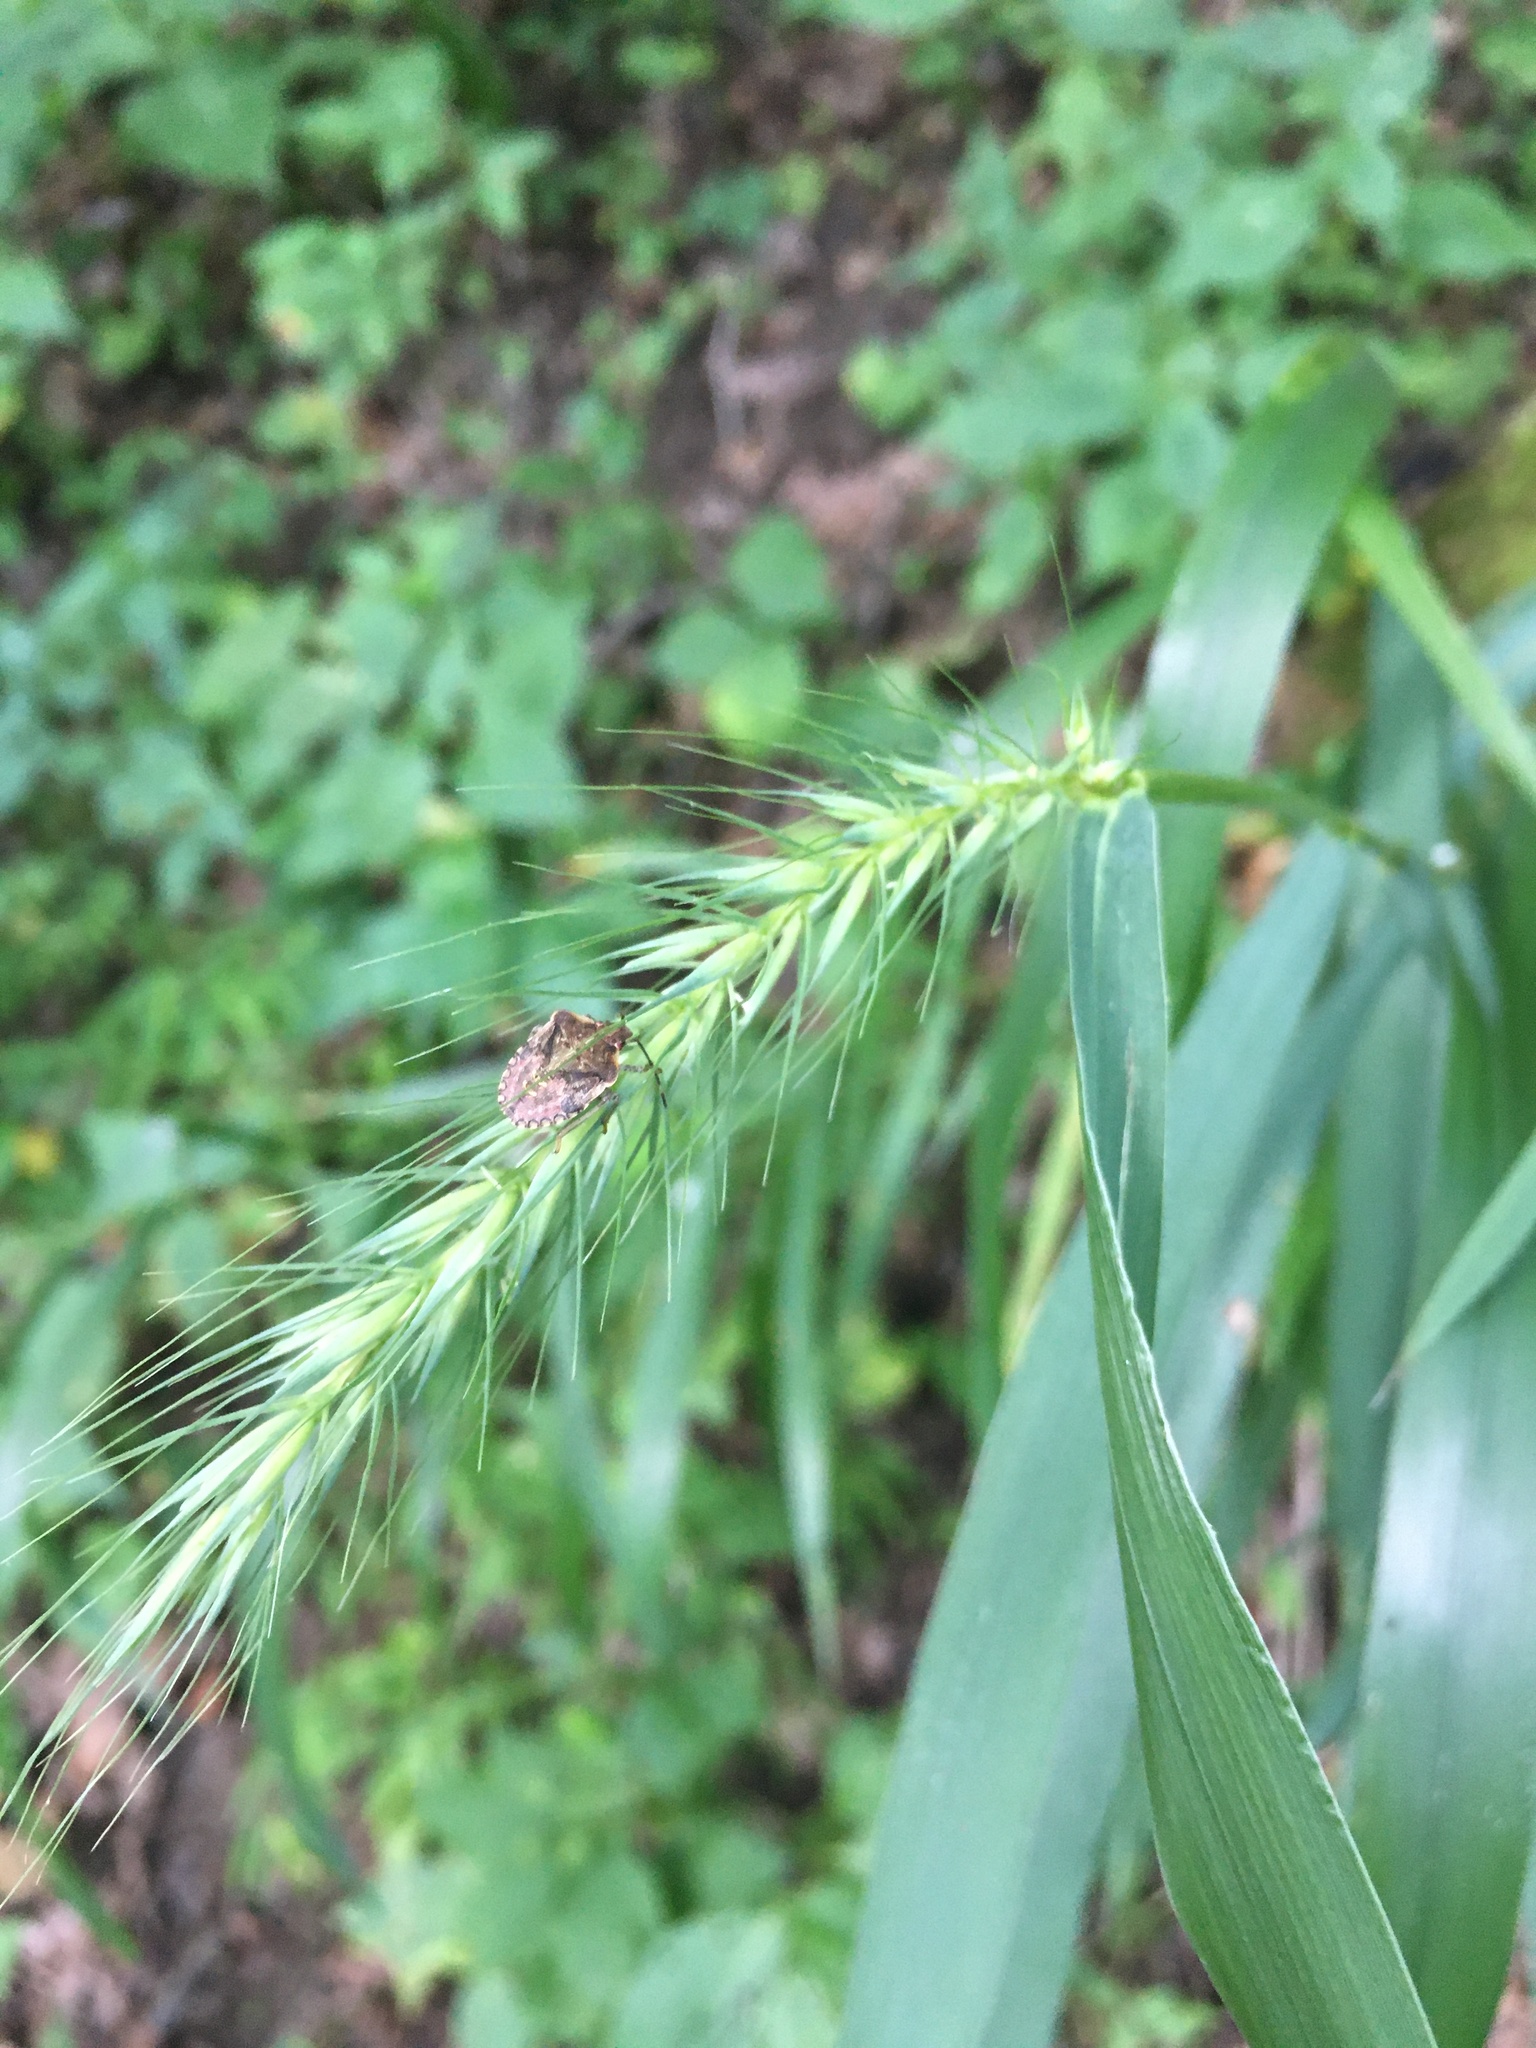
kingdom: Plantae
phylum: Tracheophyta
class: Liliopsida
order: Poales
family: Poaceae
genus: Elymus
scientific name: Elymus riparius
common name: Eastern riverbank wild rye
